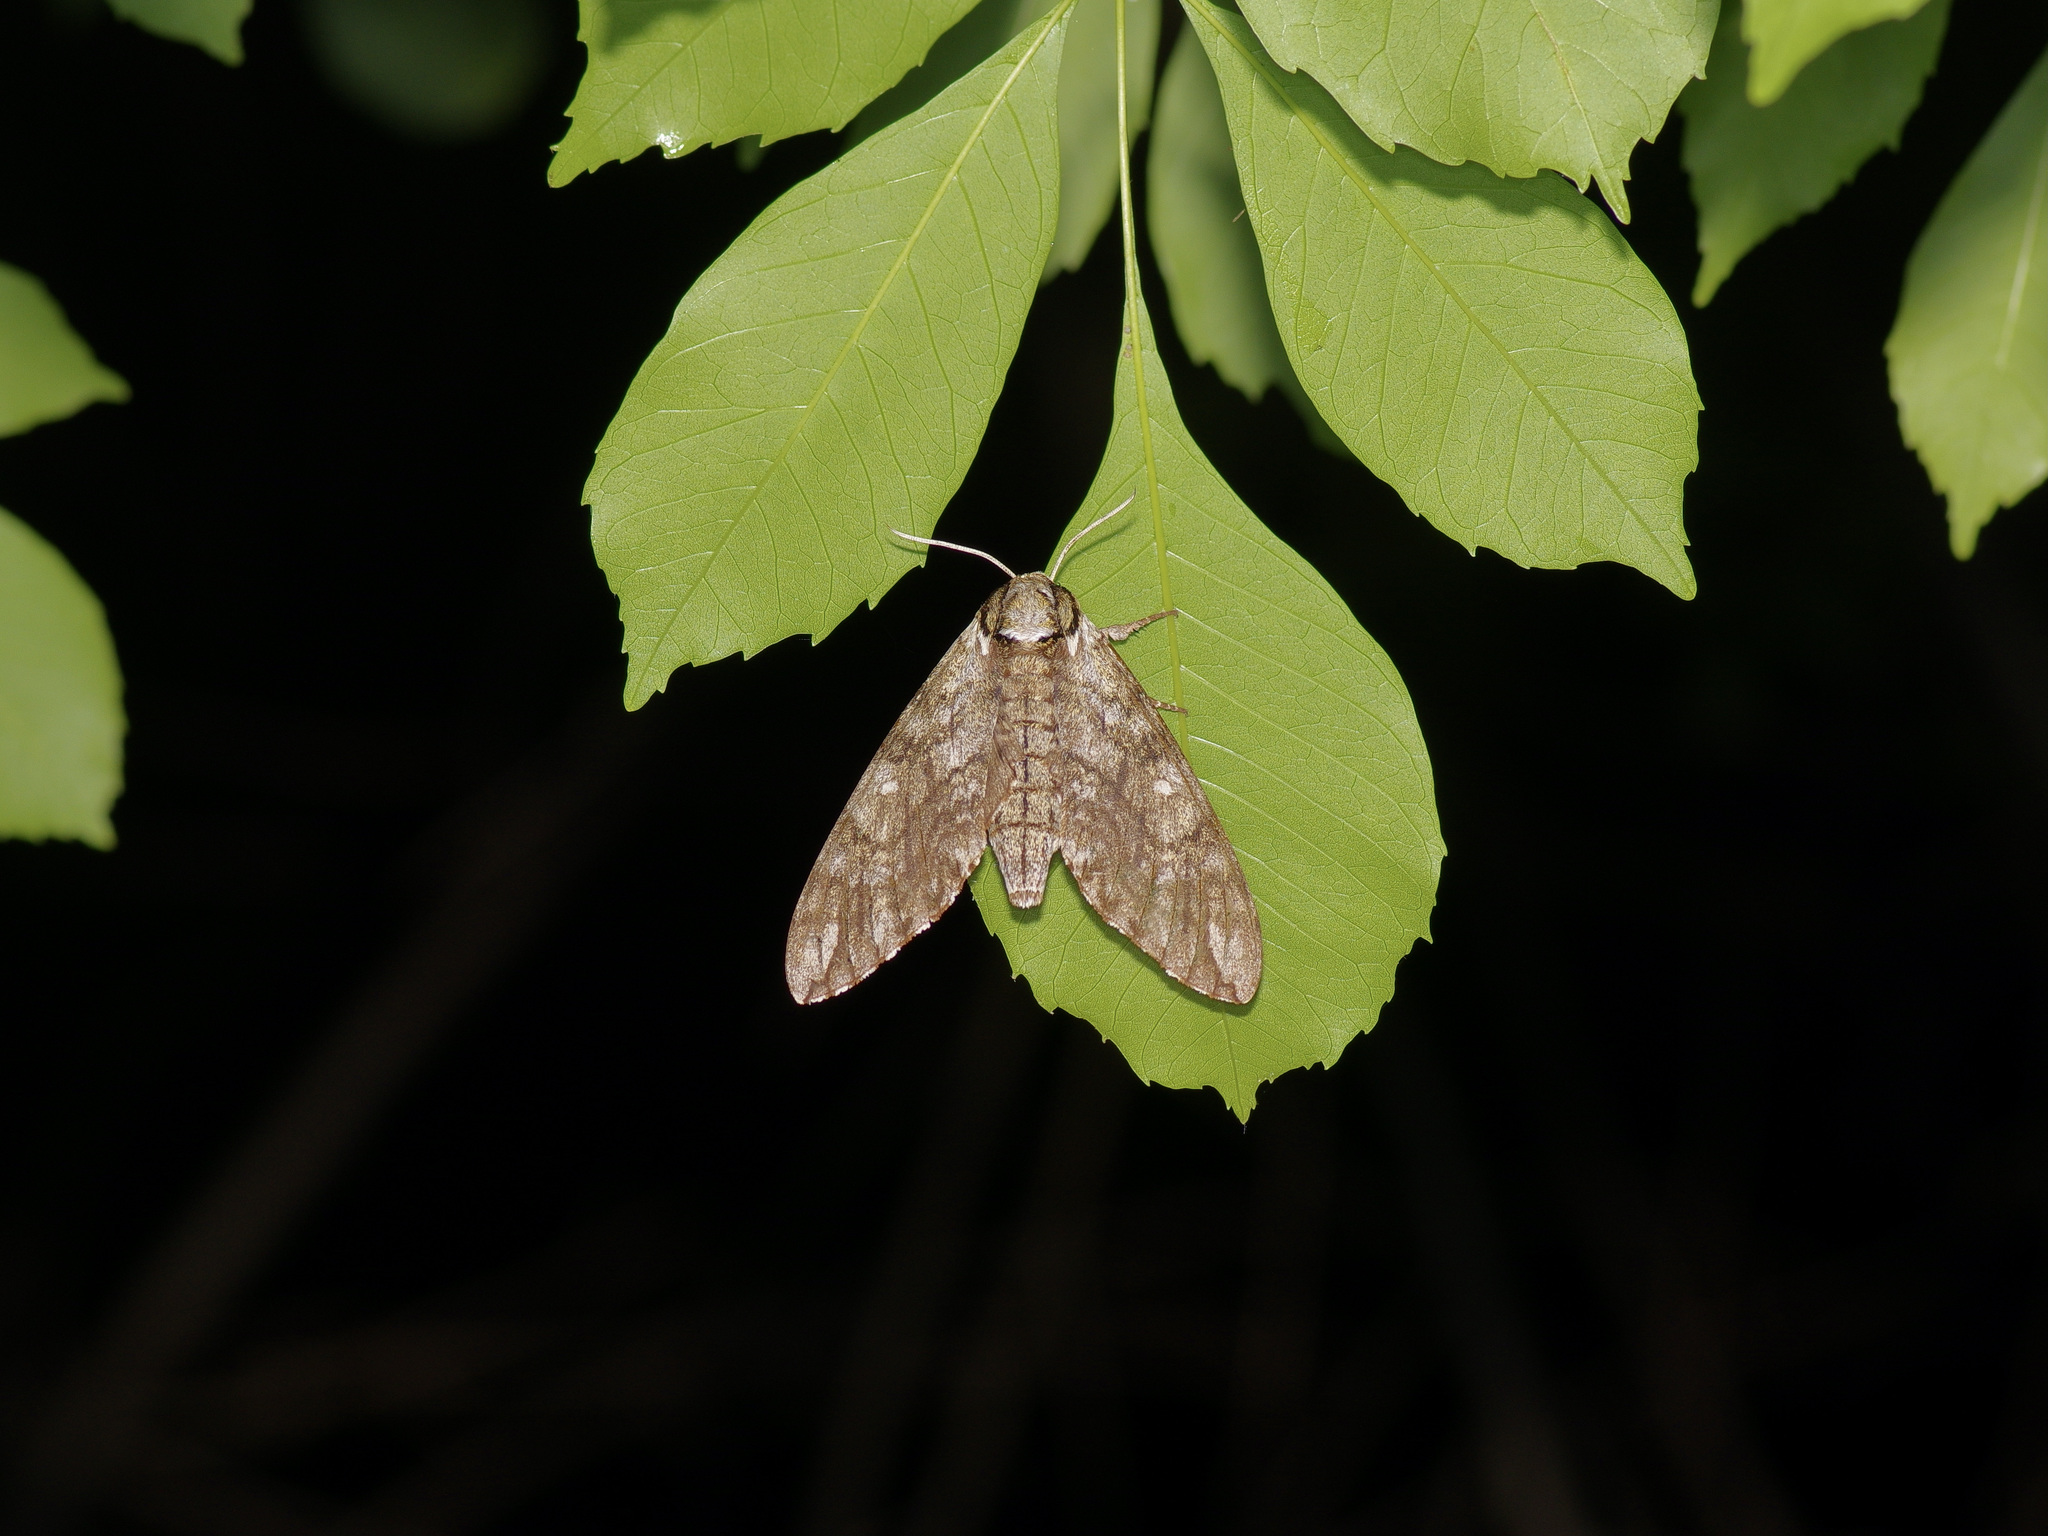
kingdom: Animalia
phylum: Arthropoda
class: Insecta
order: Lepidoptera
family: Sphingidae
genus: Ceratomia
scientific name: Ceratomia undulosa
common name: Waved sphinx
